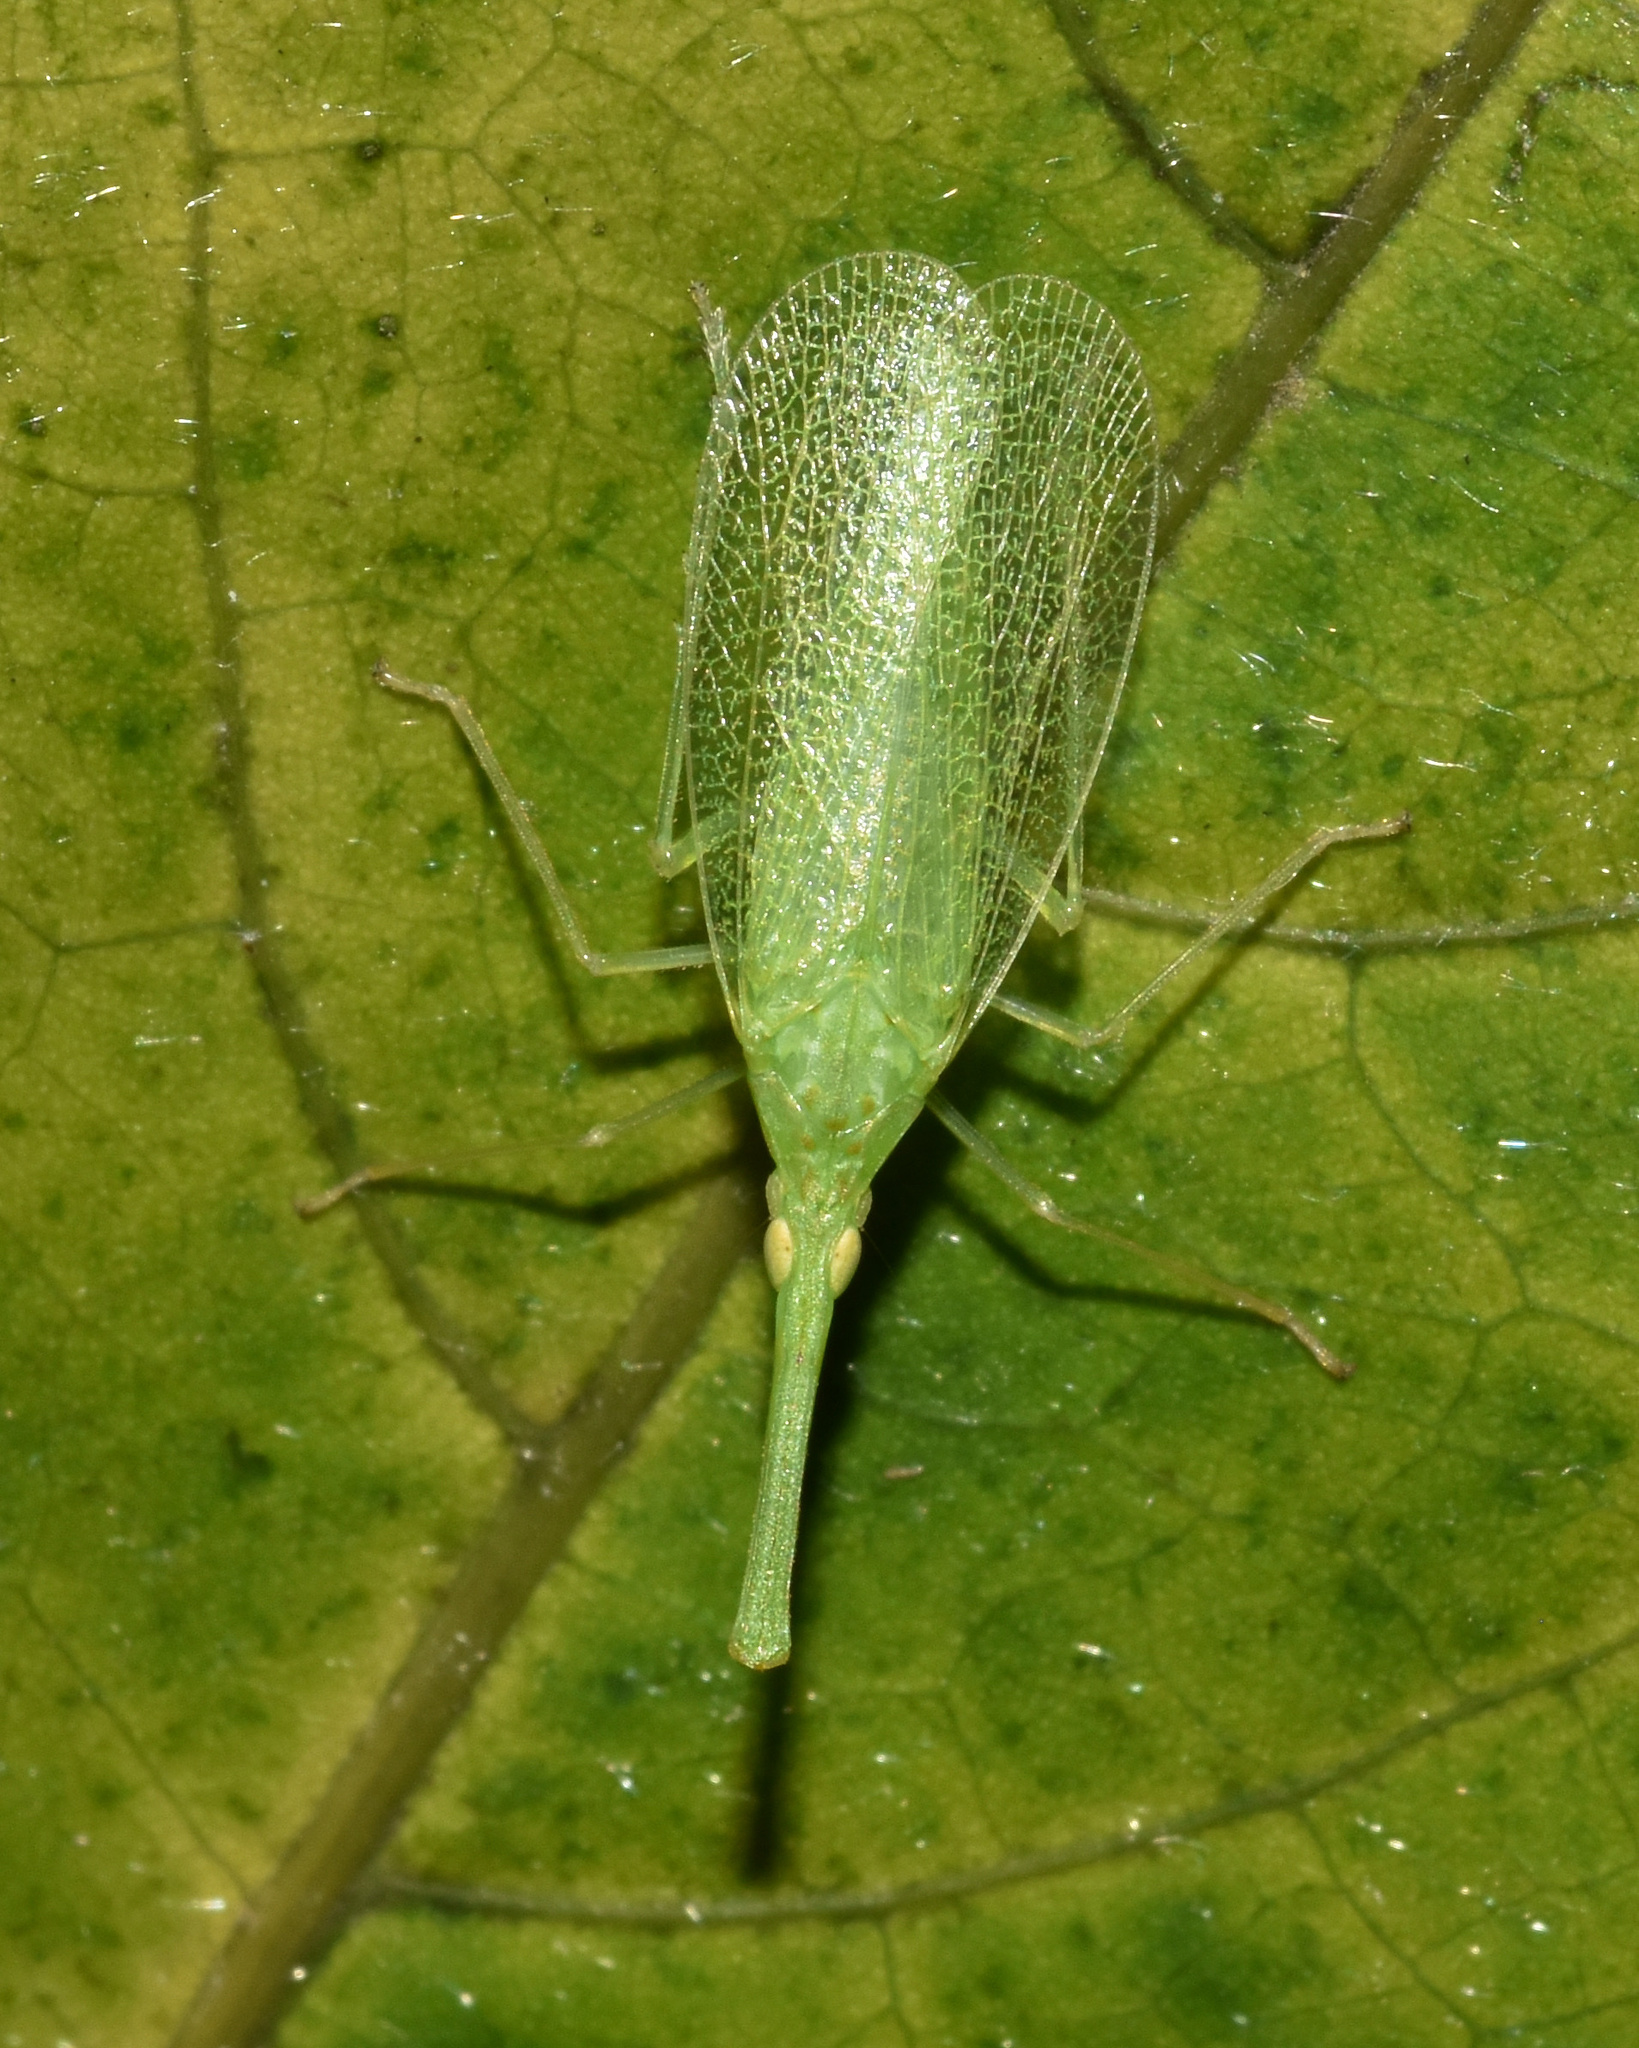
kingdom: Animalia
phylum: Arthropoda
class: Insecta
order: Hemiptera
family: Dictyopharidae
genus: Aluntia
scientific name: Aluntia schimperii
